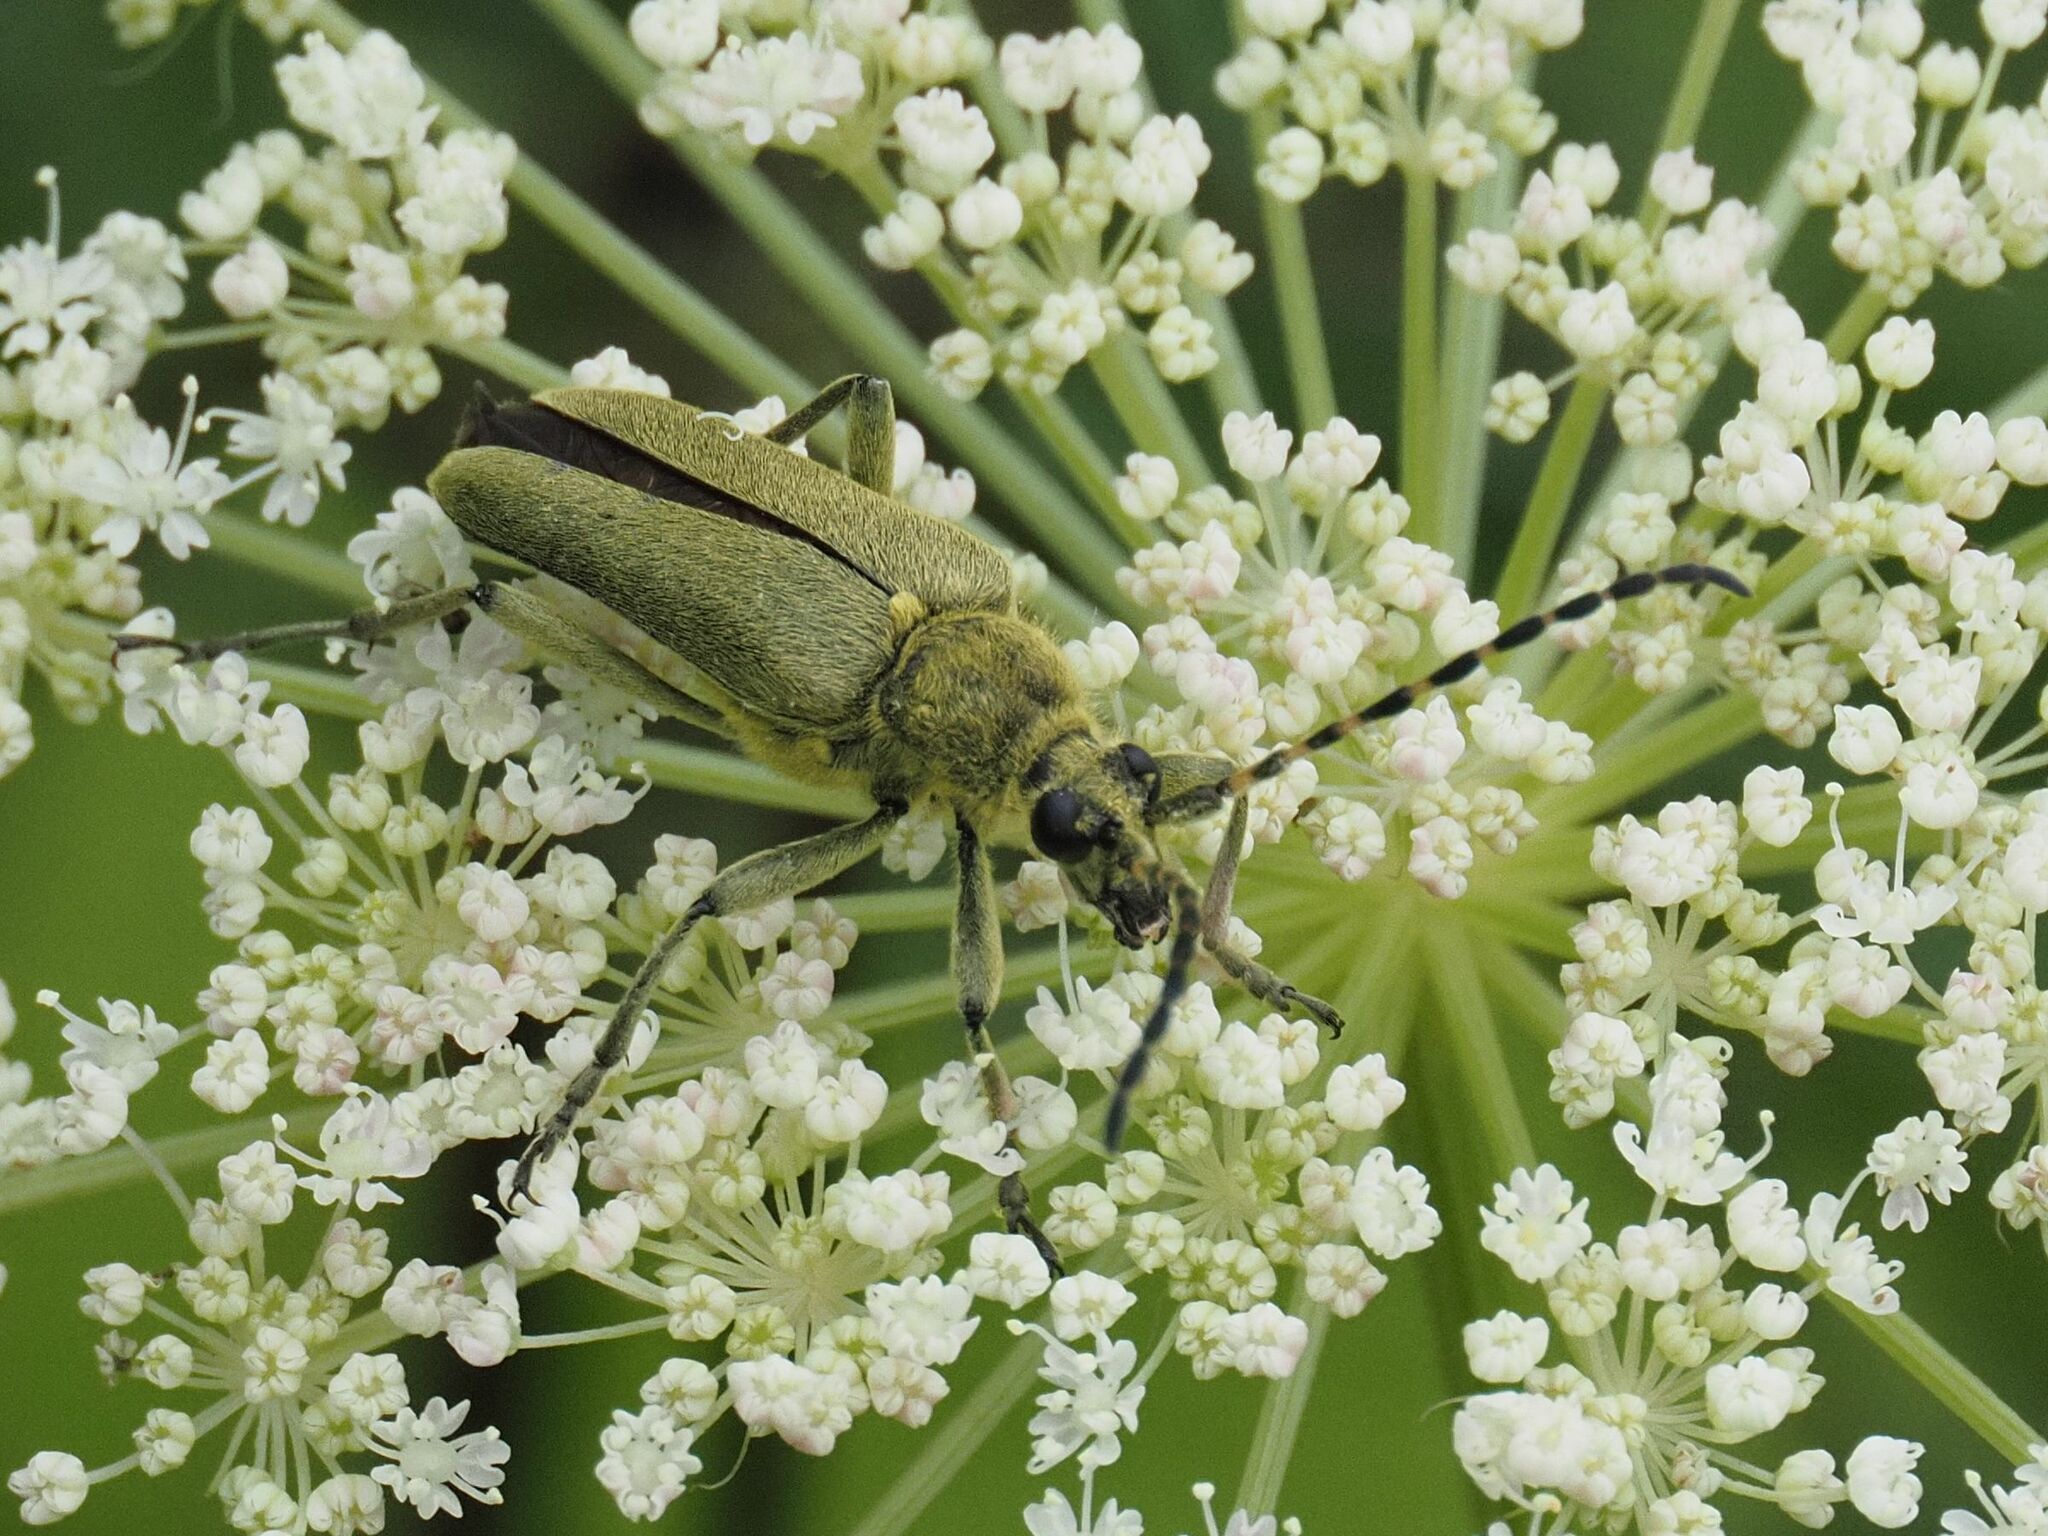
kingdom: Animalia
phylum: Arthropoda
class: Insecta
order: Coleoptera
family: Cerambycidae
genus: Lepturobosca
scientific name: Lepturobosca virens
